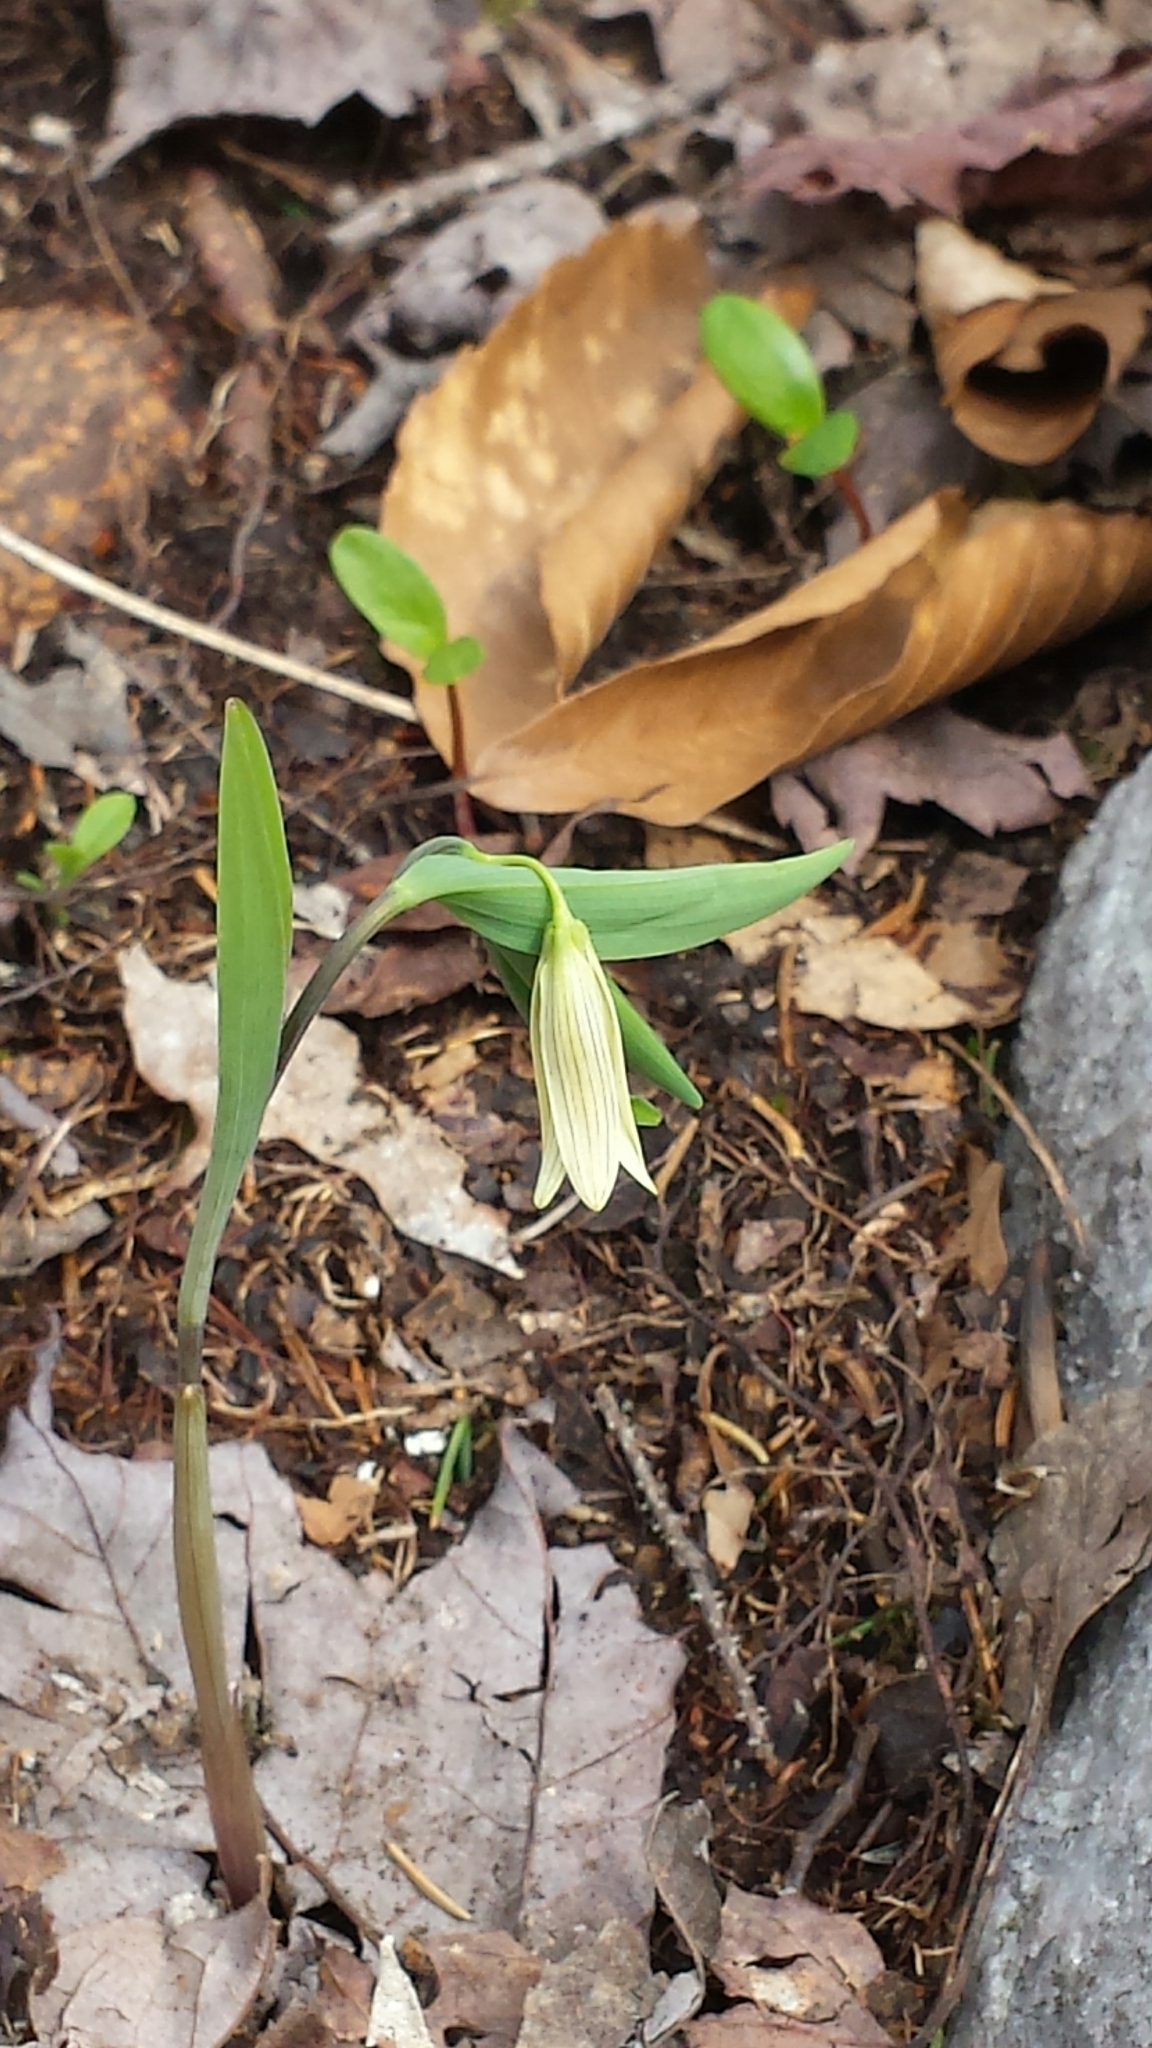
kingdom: Plantae
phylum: Tracheophyta
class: Liliopsida
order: Liliales
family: Colchicaceae
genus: Uvularia
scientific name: Uvularia sessilifolia
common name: Straw-lily
